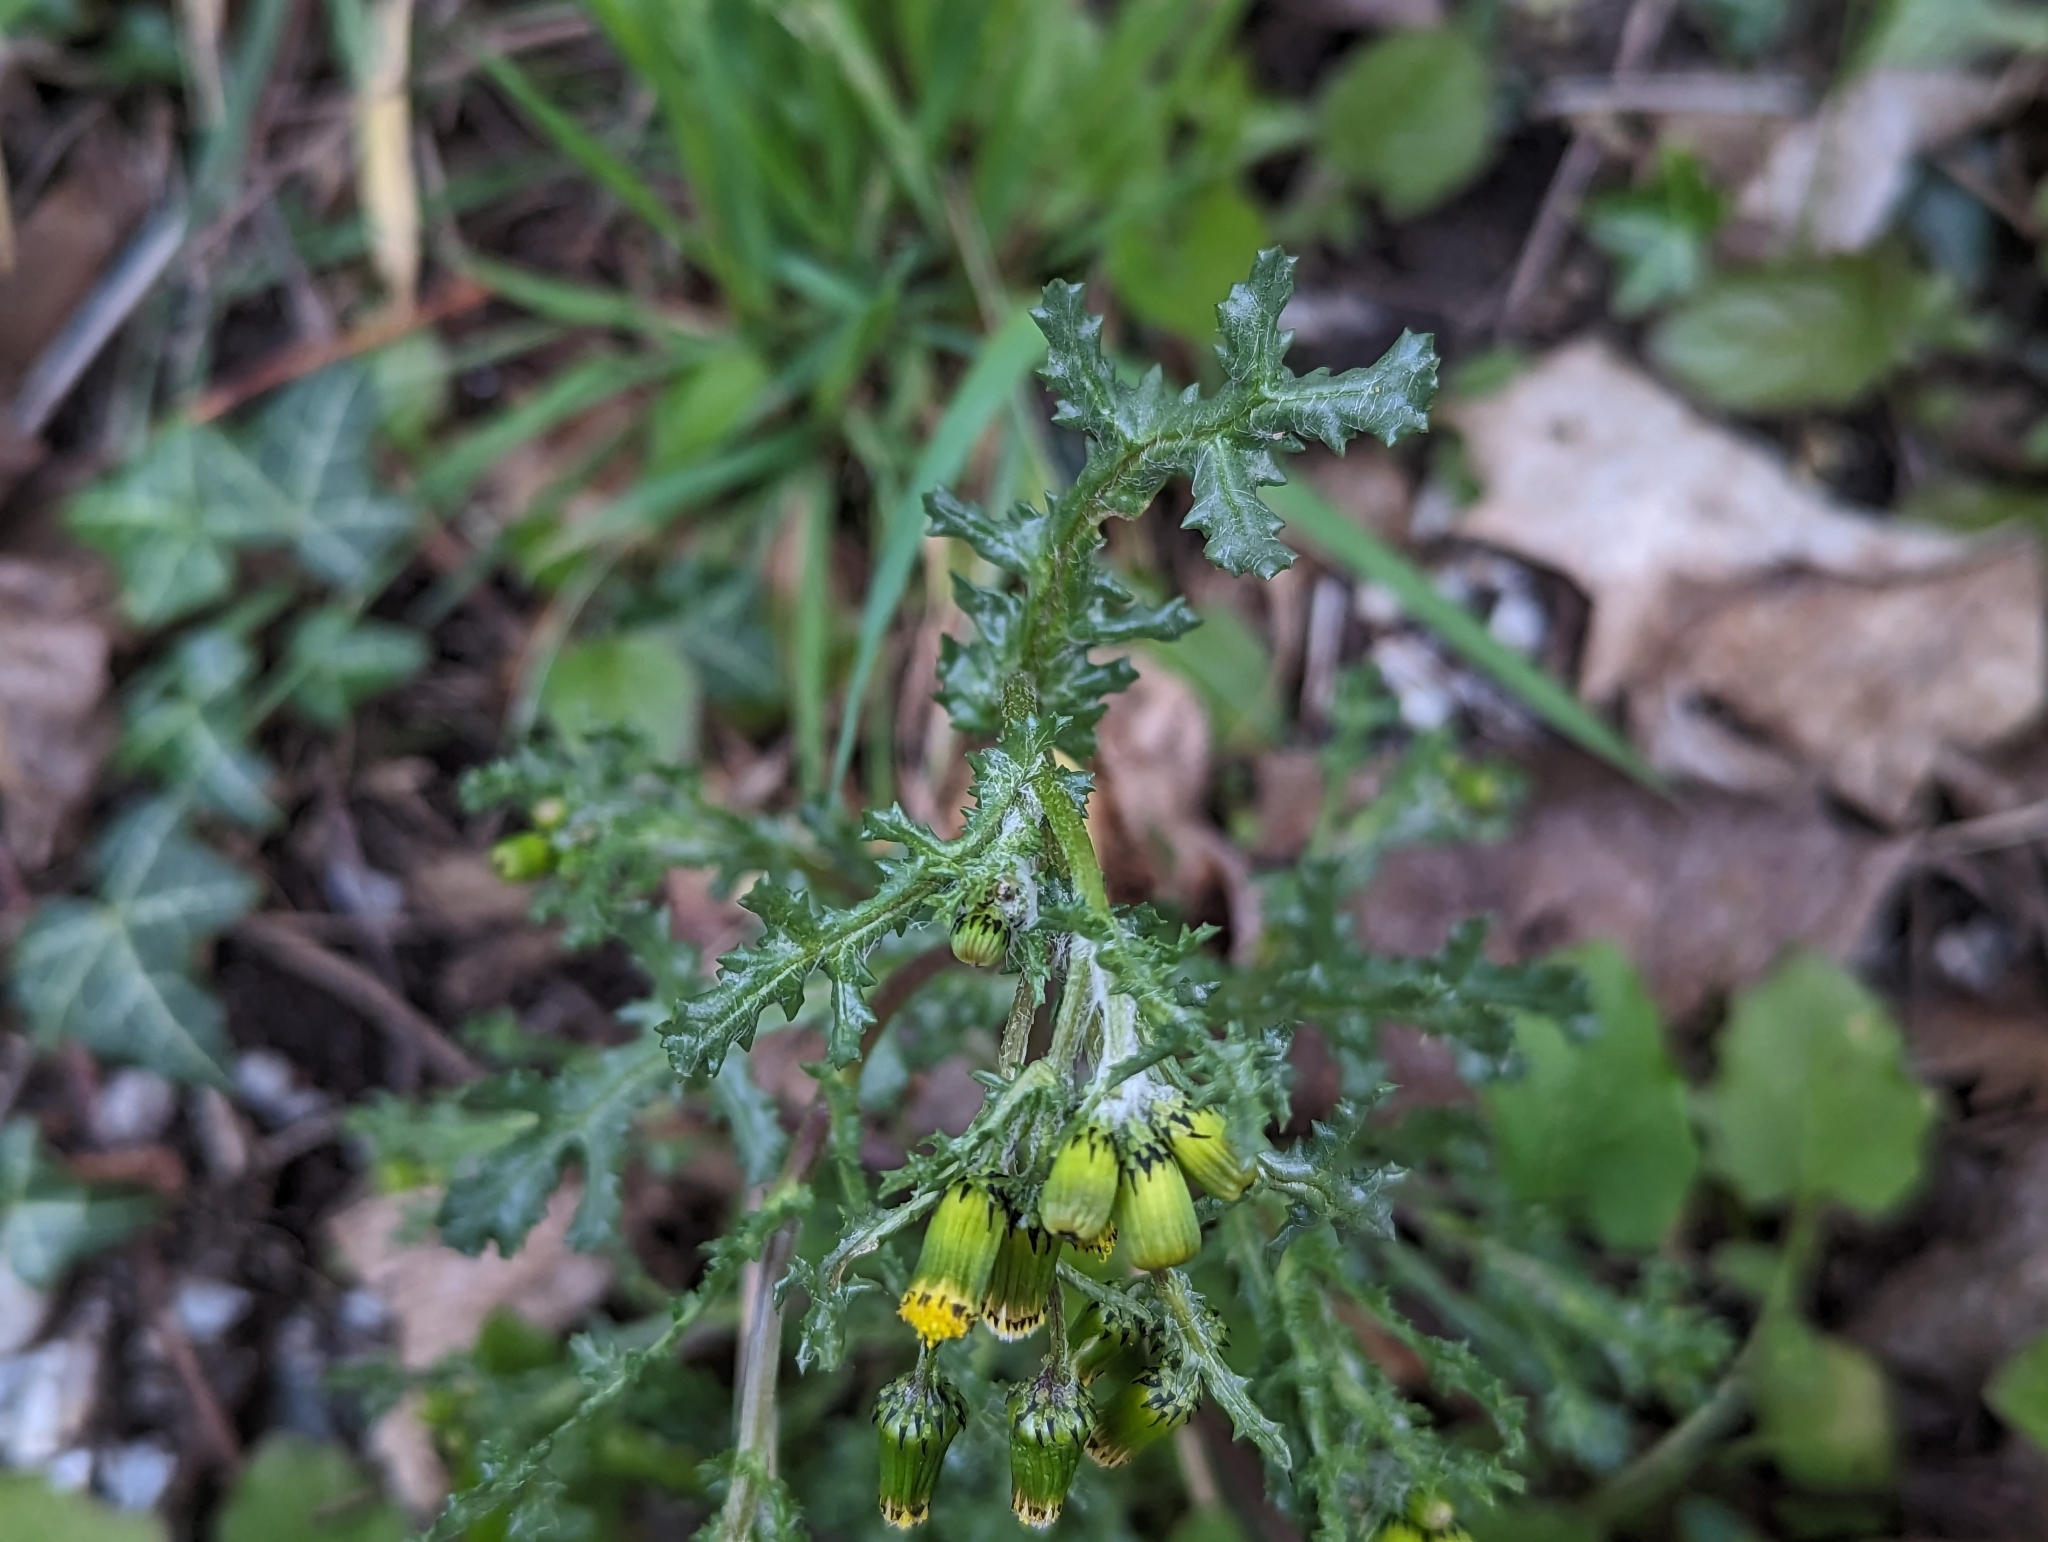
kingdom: Plantae
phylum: Tracheophyta
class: Magnoliopsida
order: Asterales
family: Asteraceae
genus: Senecio
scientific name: Senecio vulgaris
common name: Old-man-in-the-spring
